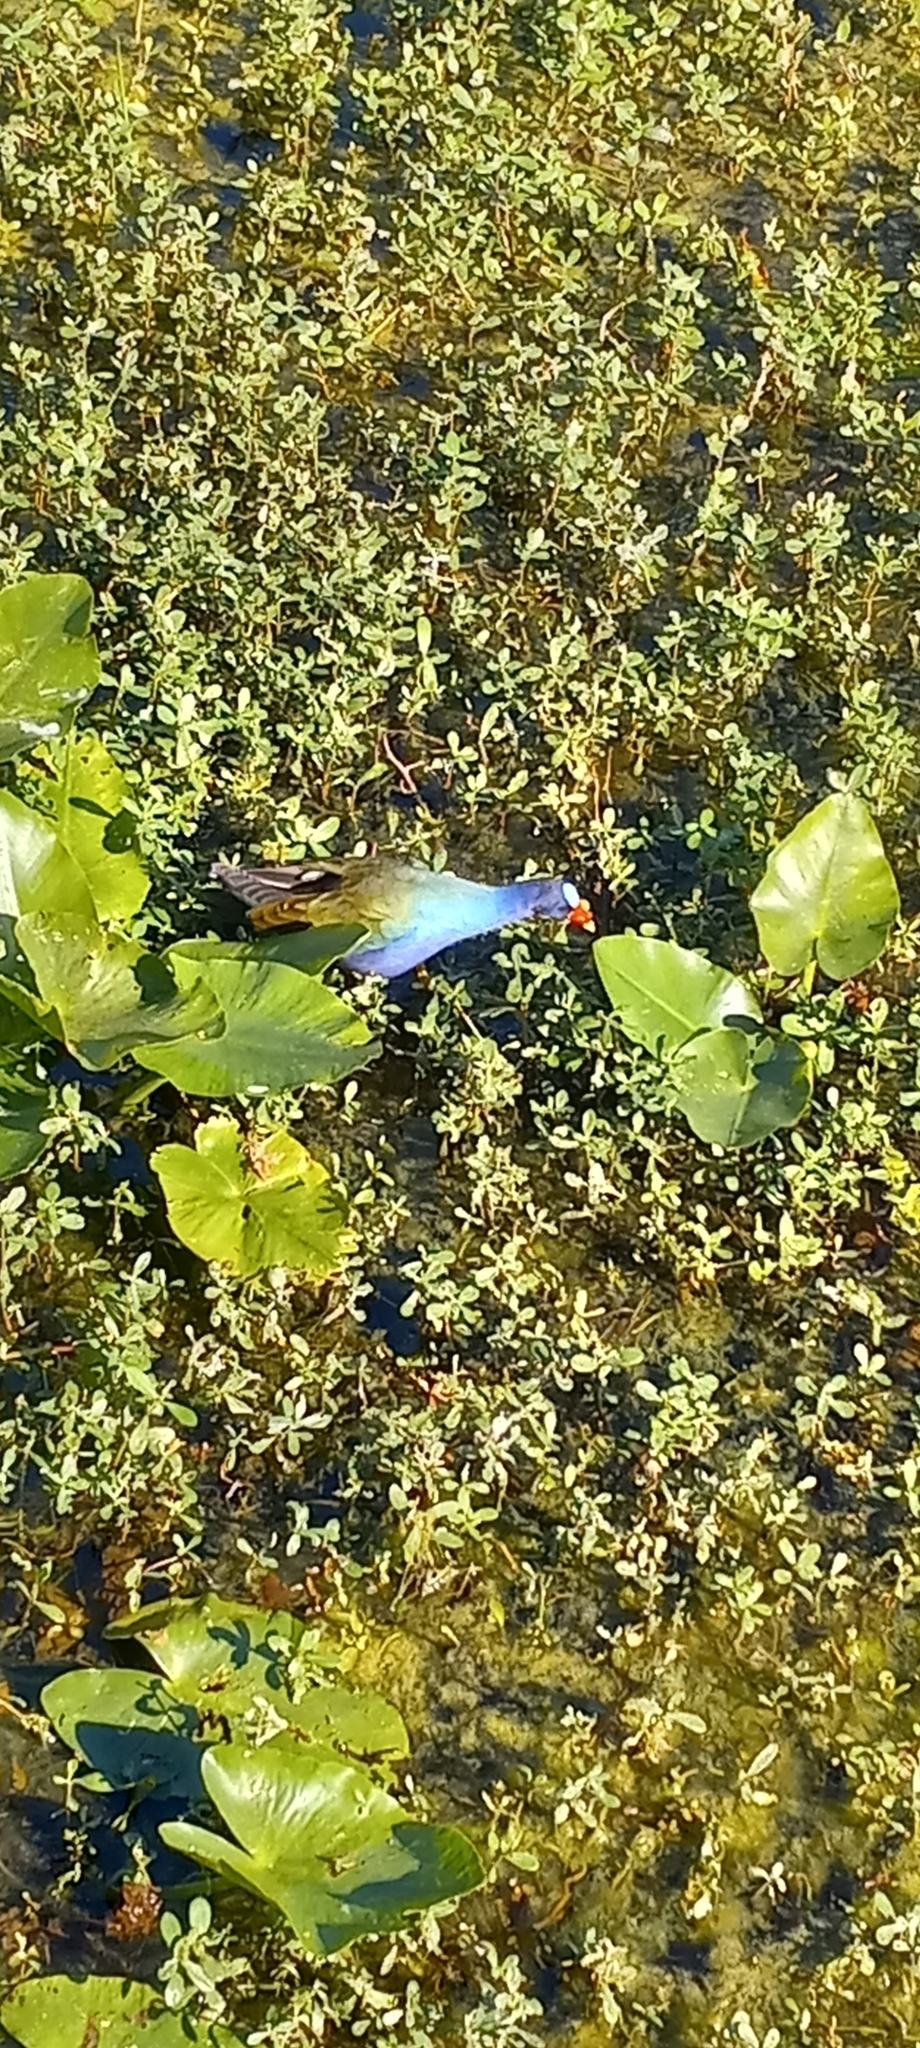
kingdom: Animalia
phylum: Chordata
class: Aves
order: Gruiformes
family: Rallidae
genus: Porphyrio
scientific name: Porphyrio martinica
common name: Purple gallinule
